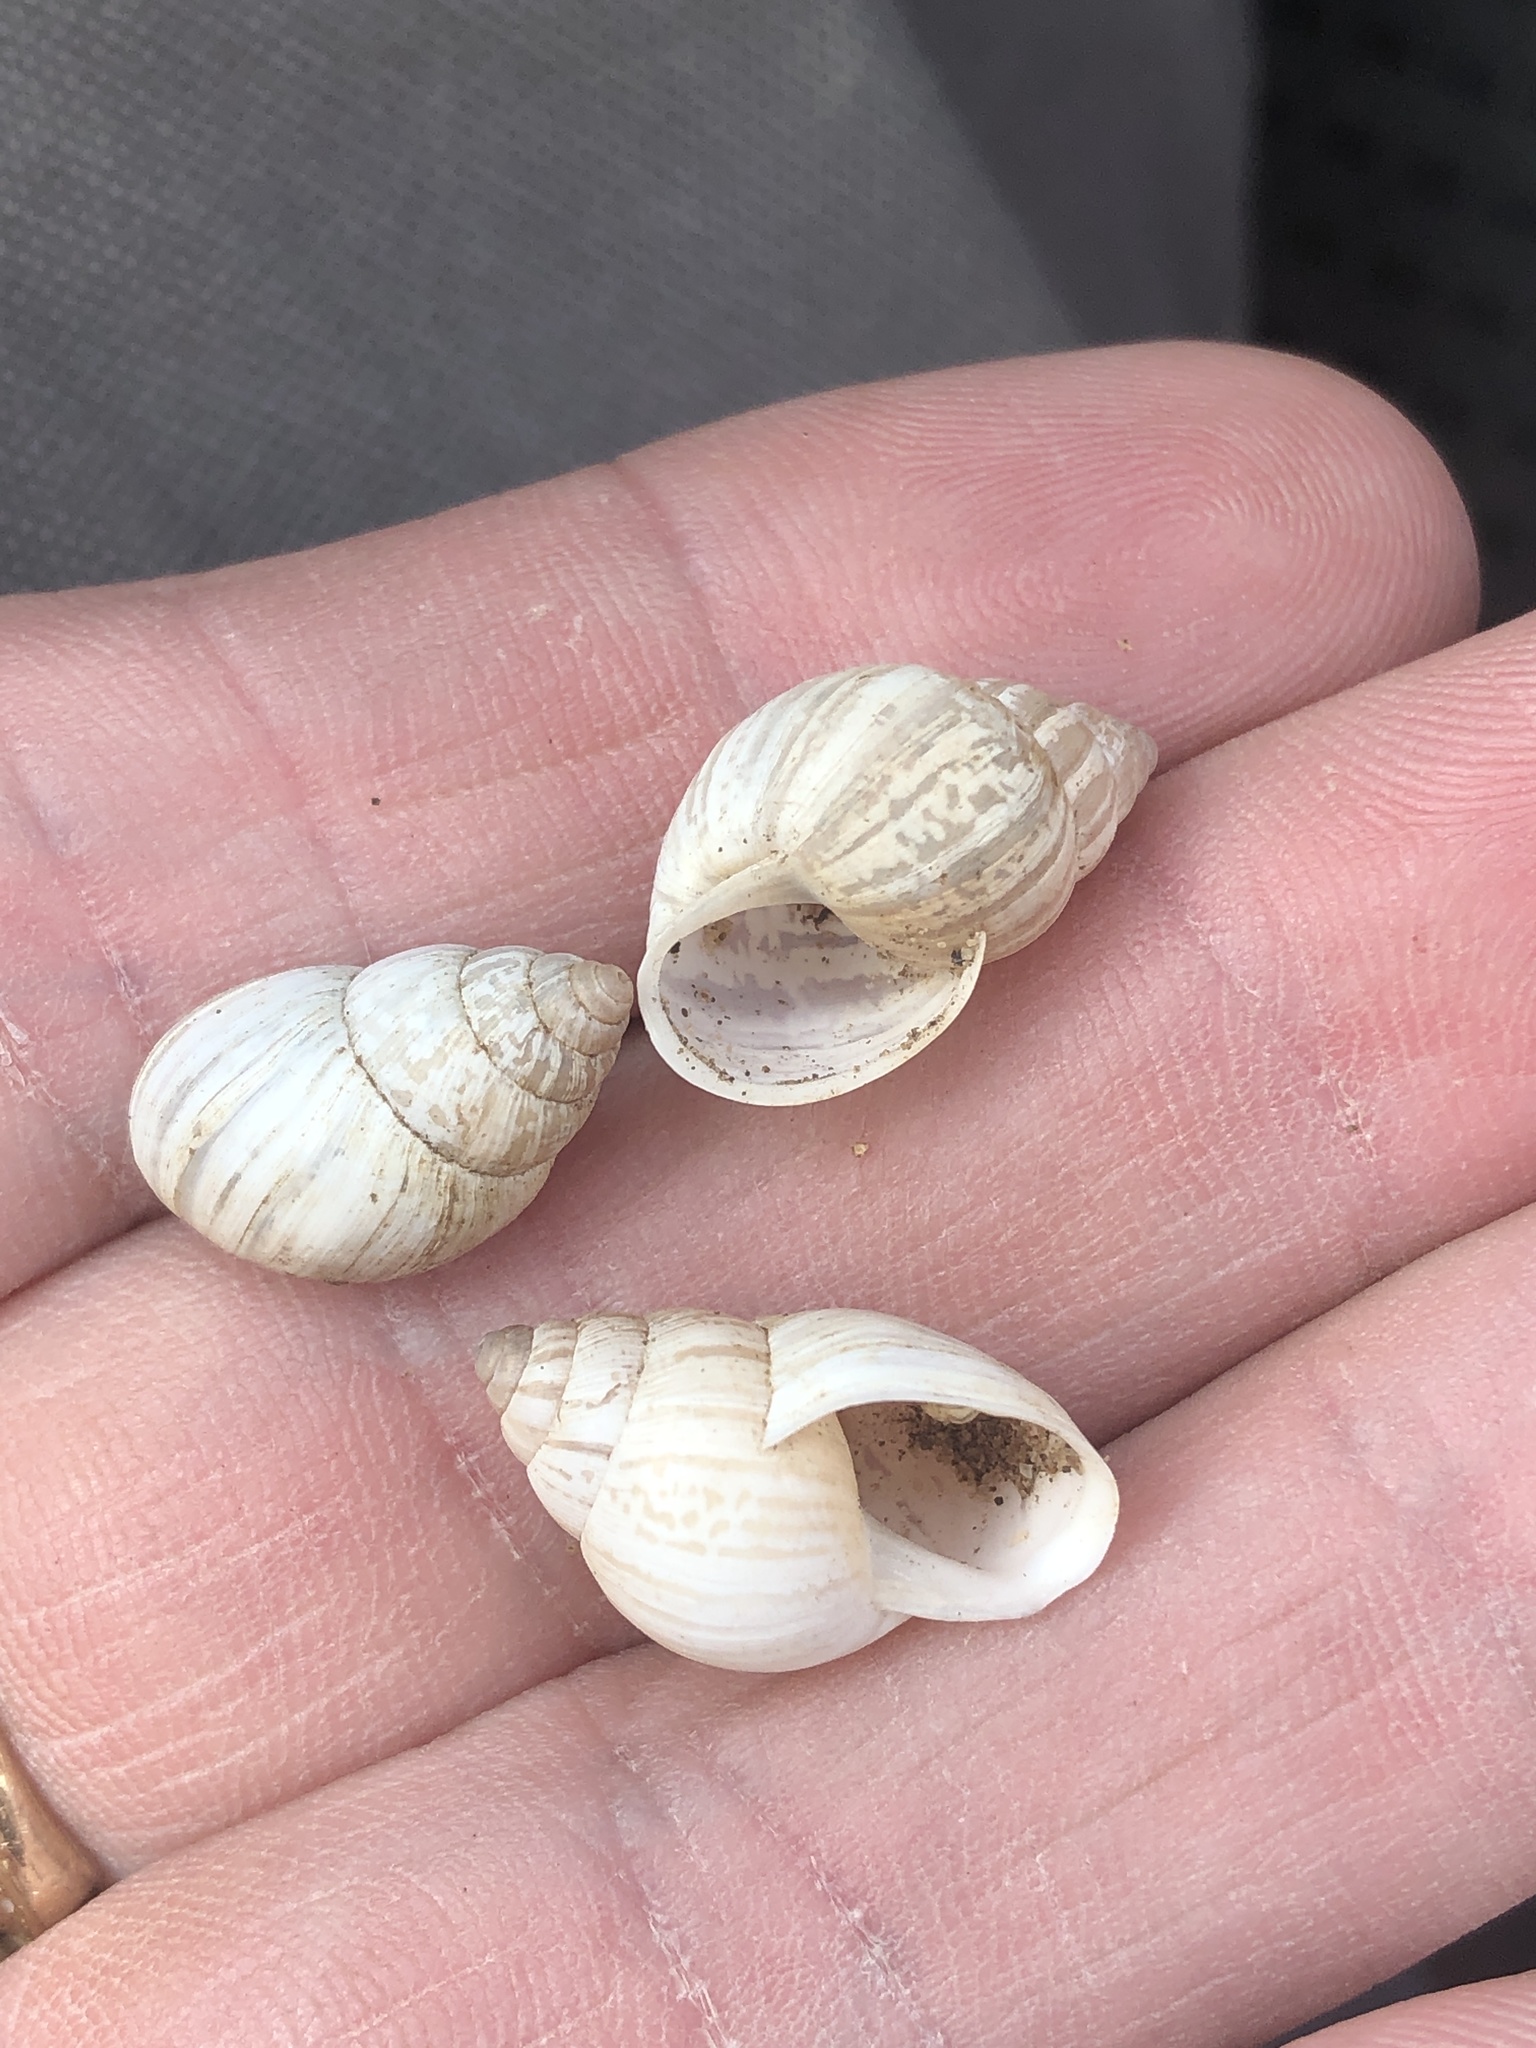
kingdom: Animalia
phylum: Mollusca
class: Gastropoda
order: Stylommatophora
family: Bulimulidae
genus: Rabdotus
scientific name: Rabdotus dealbatus
